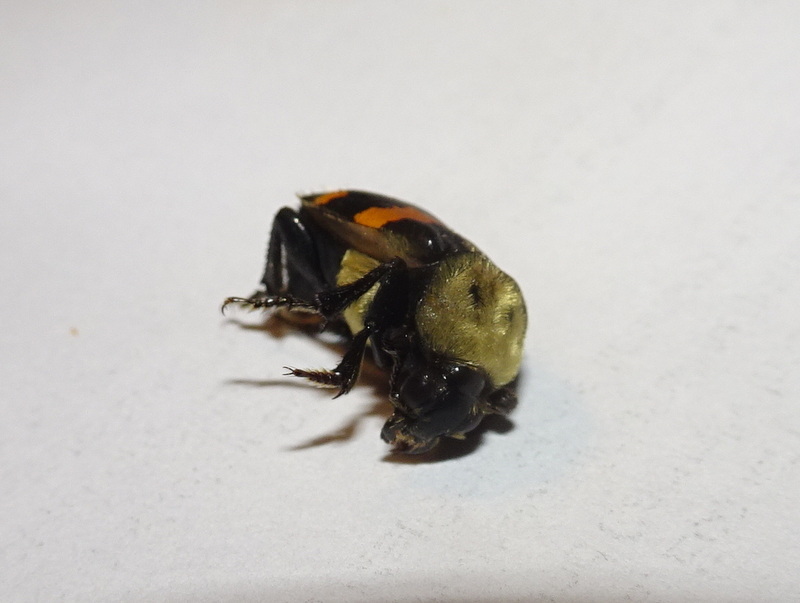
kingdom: Animalia
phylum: Arthropoda
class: Insecta
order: Coleoptera
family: Staphylinidae
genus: Nicrophorus
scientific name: Nicrophorus tomentosus
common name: Tomentose burying beetle
